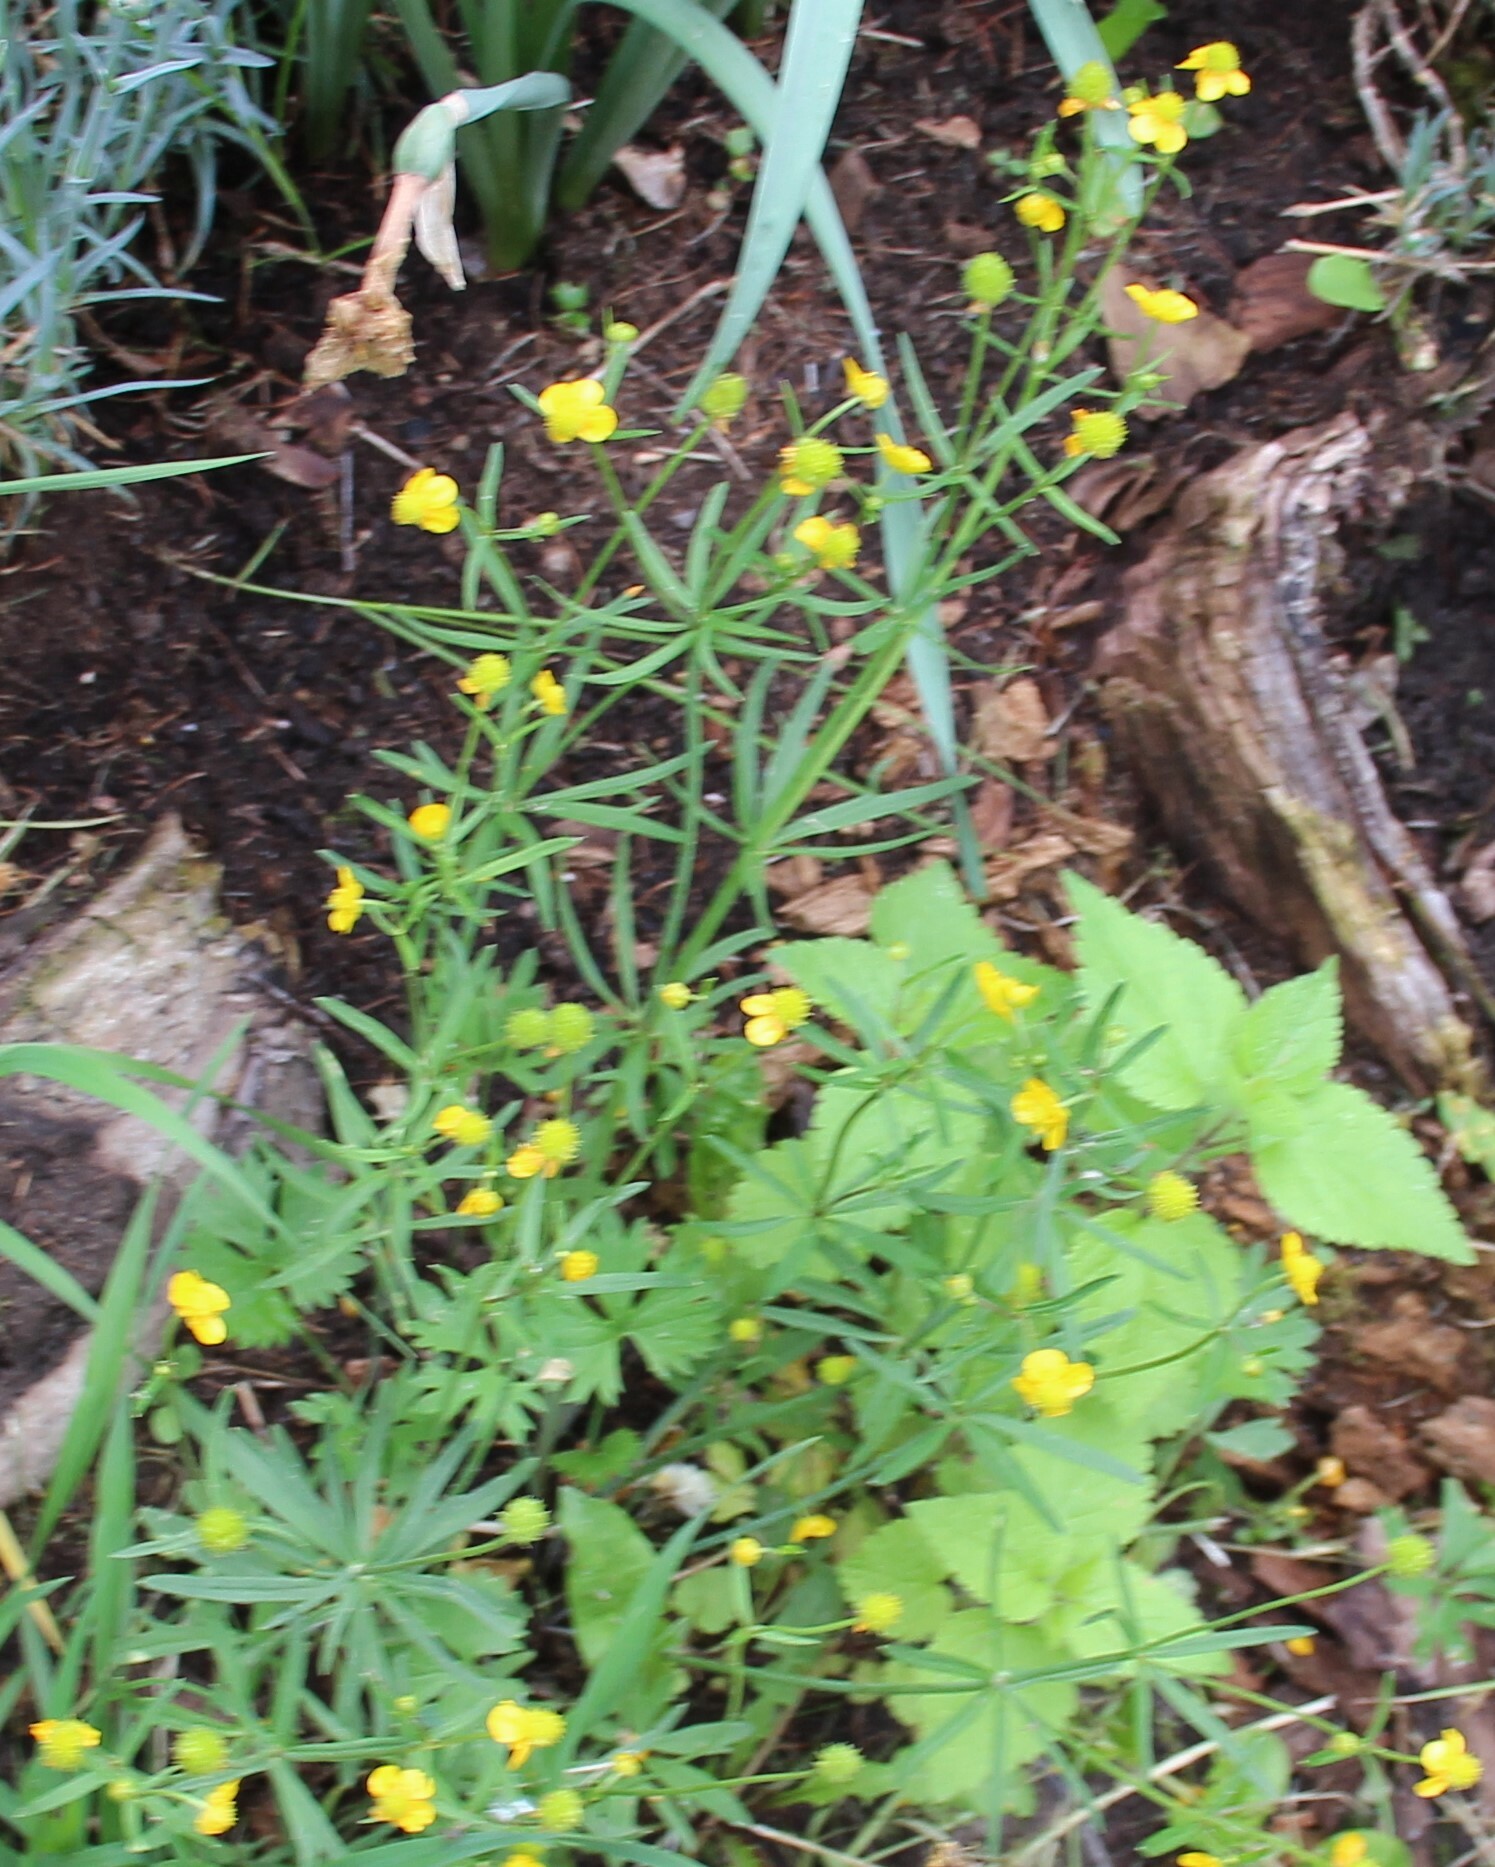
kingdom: Plantae
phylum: Tracheophyta
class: Magnoliopsida
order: Ranunculales
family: Ranunculaceae
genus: Ranunculus
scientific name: Ranunculus auricomus
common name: Goldilocks buttercup
